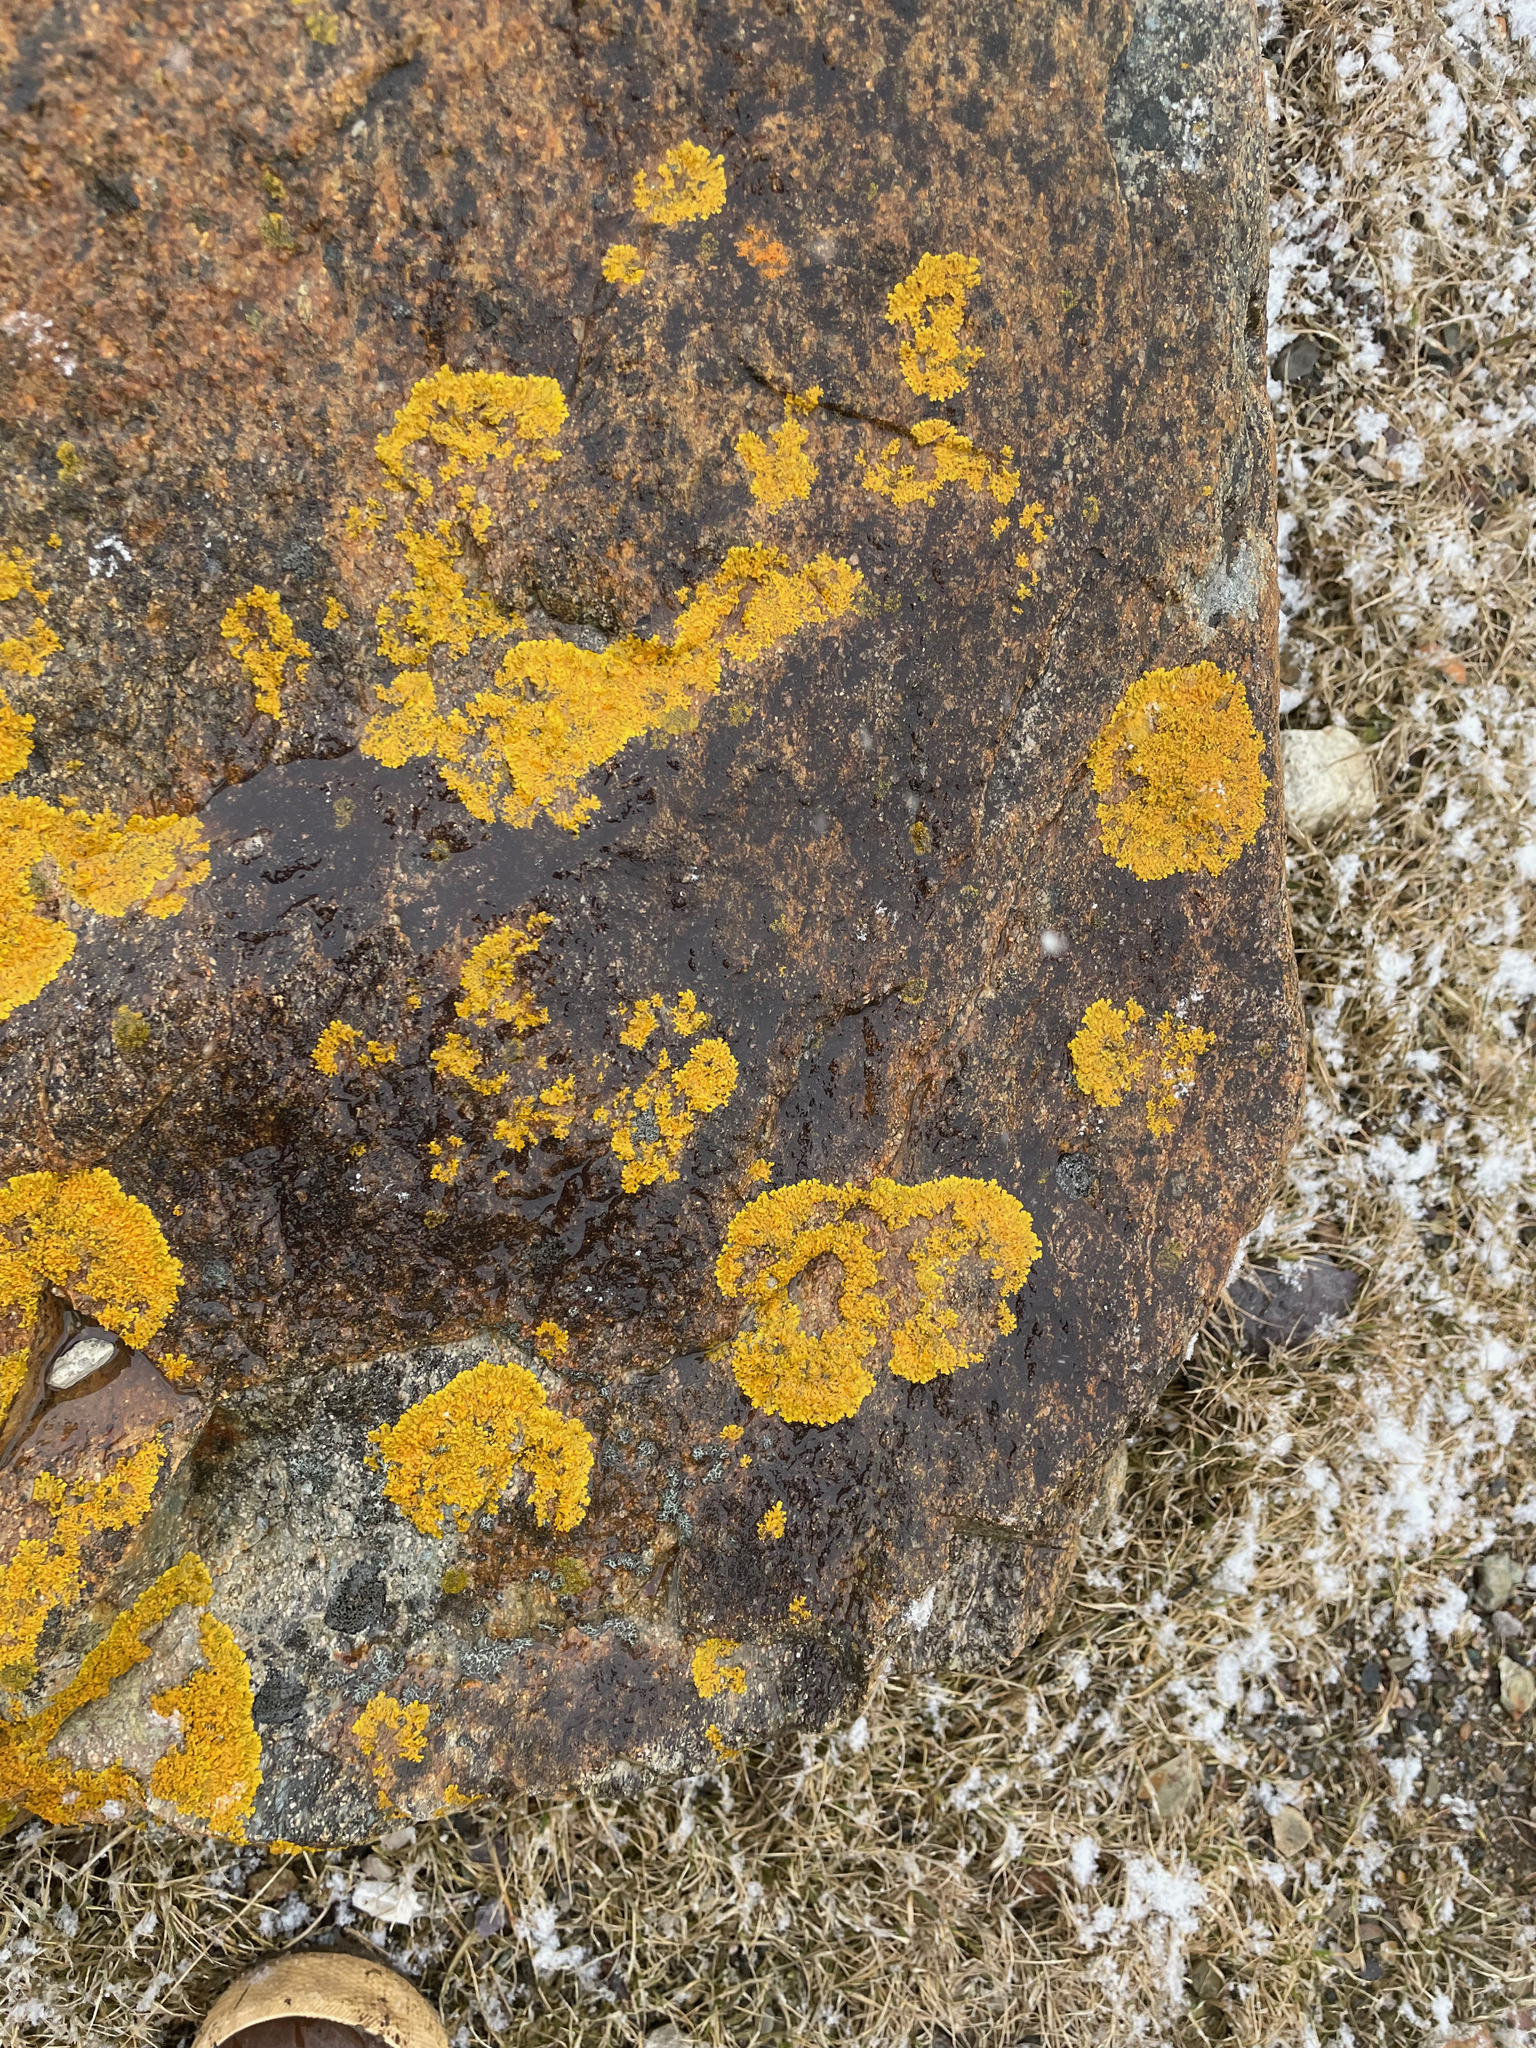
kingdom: Fungi
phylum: Ascomycota
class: Lecanoromycetes
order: Teloschistales
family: Teloschistaceae
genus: Xanthoria
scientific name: Xanthoria parietina
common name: Common orange lichen
